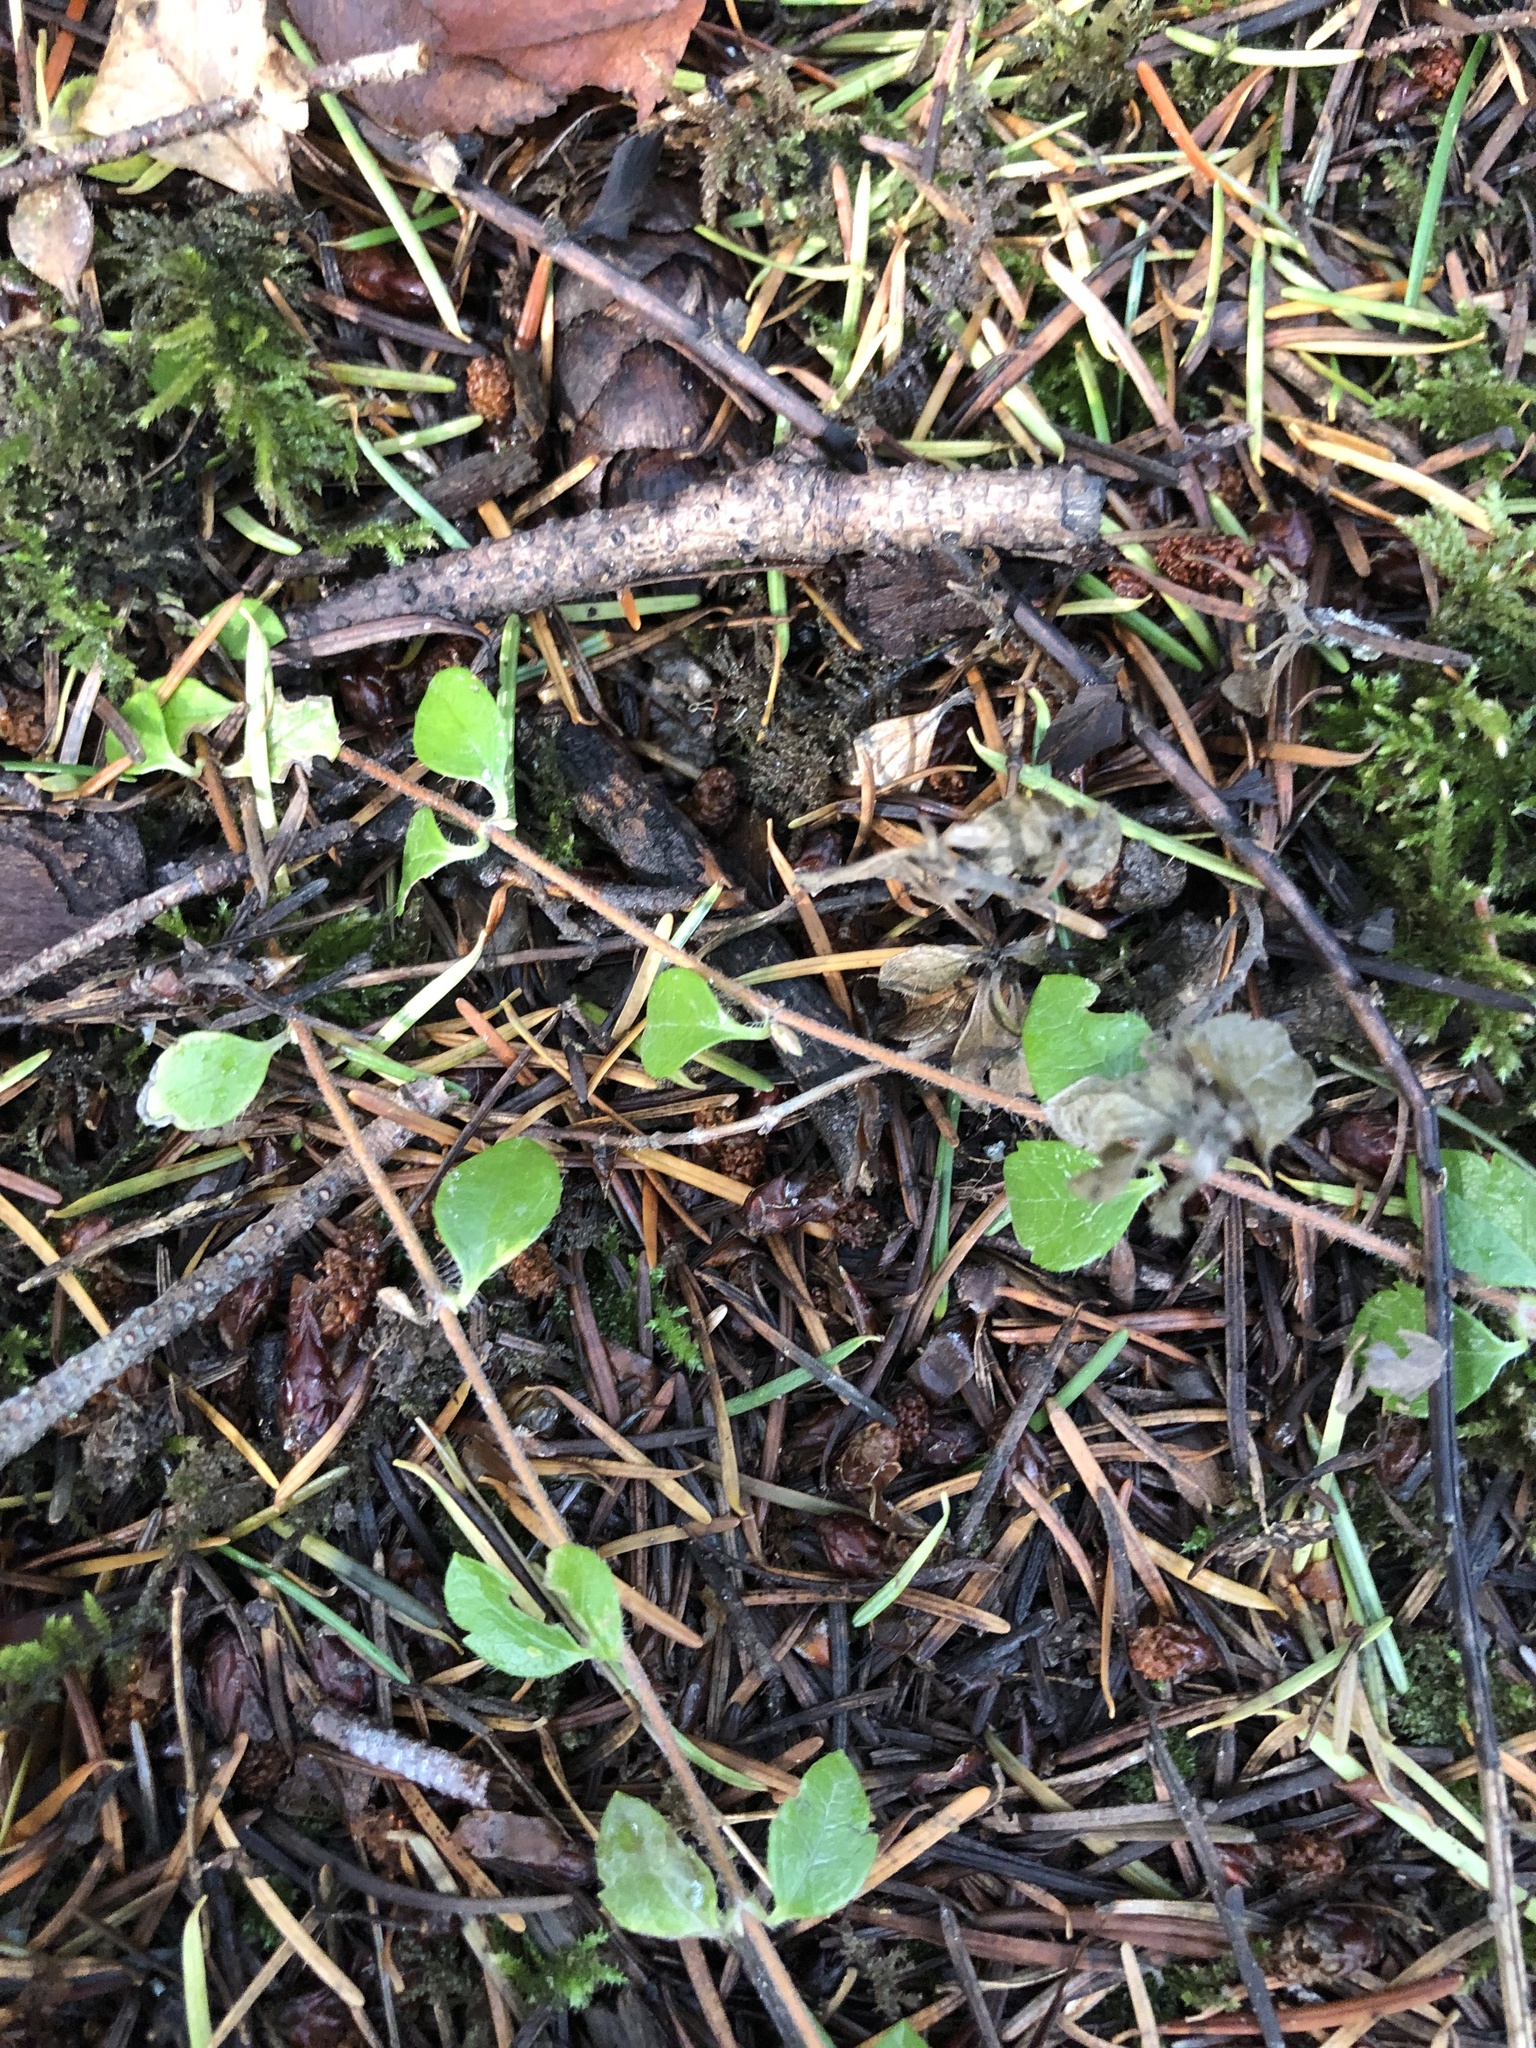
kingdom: Plantae
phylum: Tracheophyta
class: Magnoliopsida
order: Dipsacales
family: Caprifoliaceae
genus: Linnaea
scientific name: Linnaea borealis
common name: Twinflower
